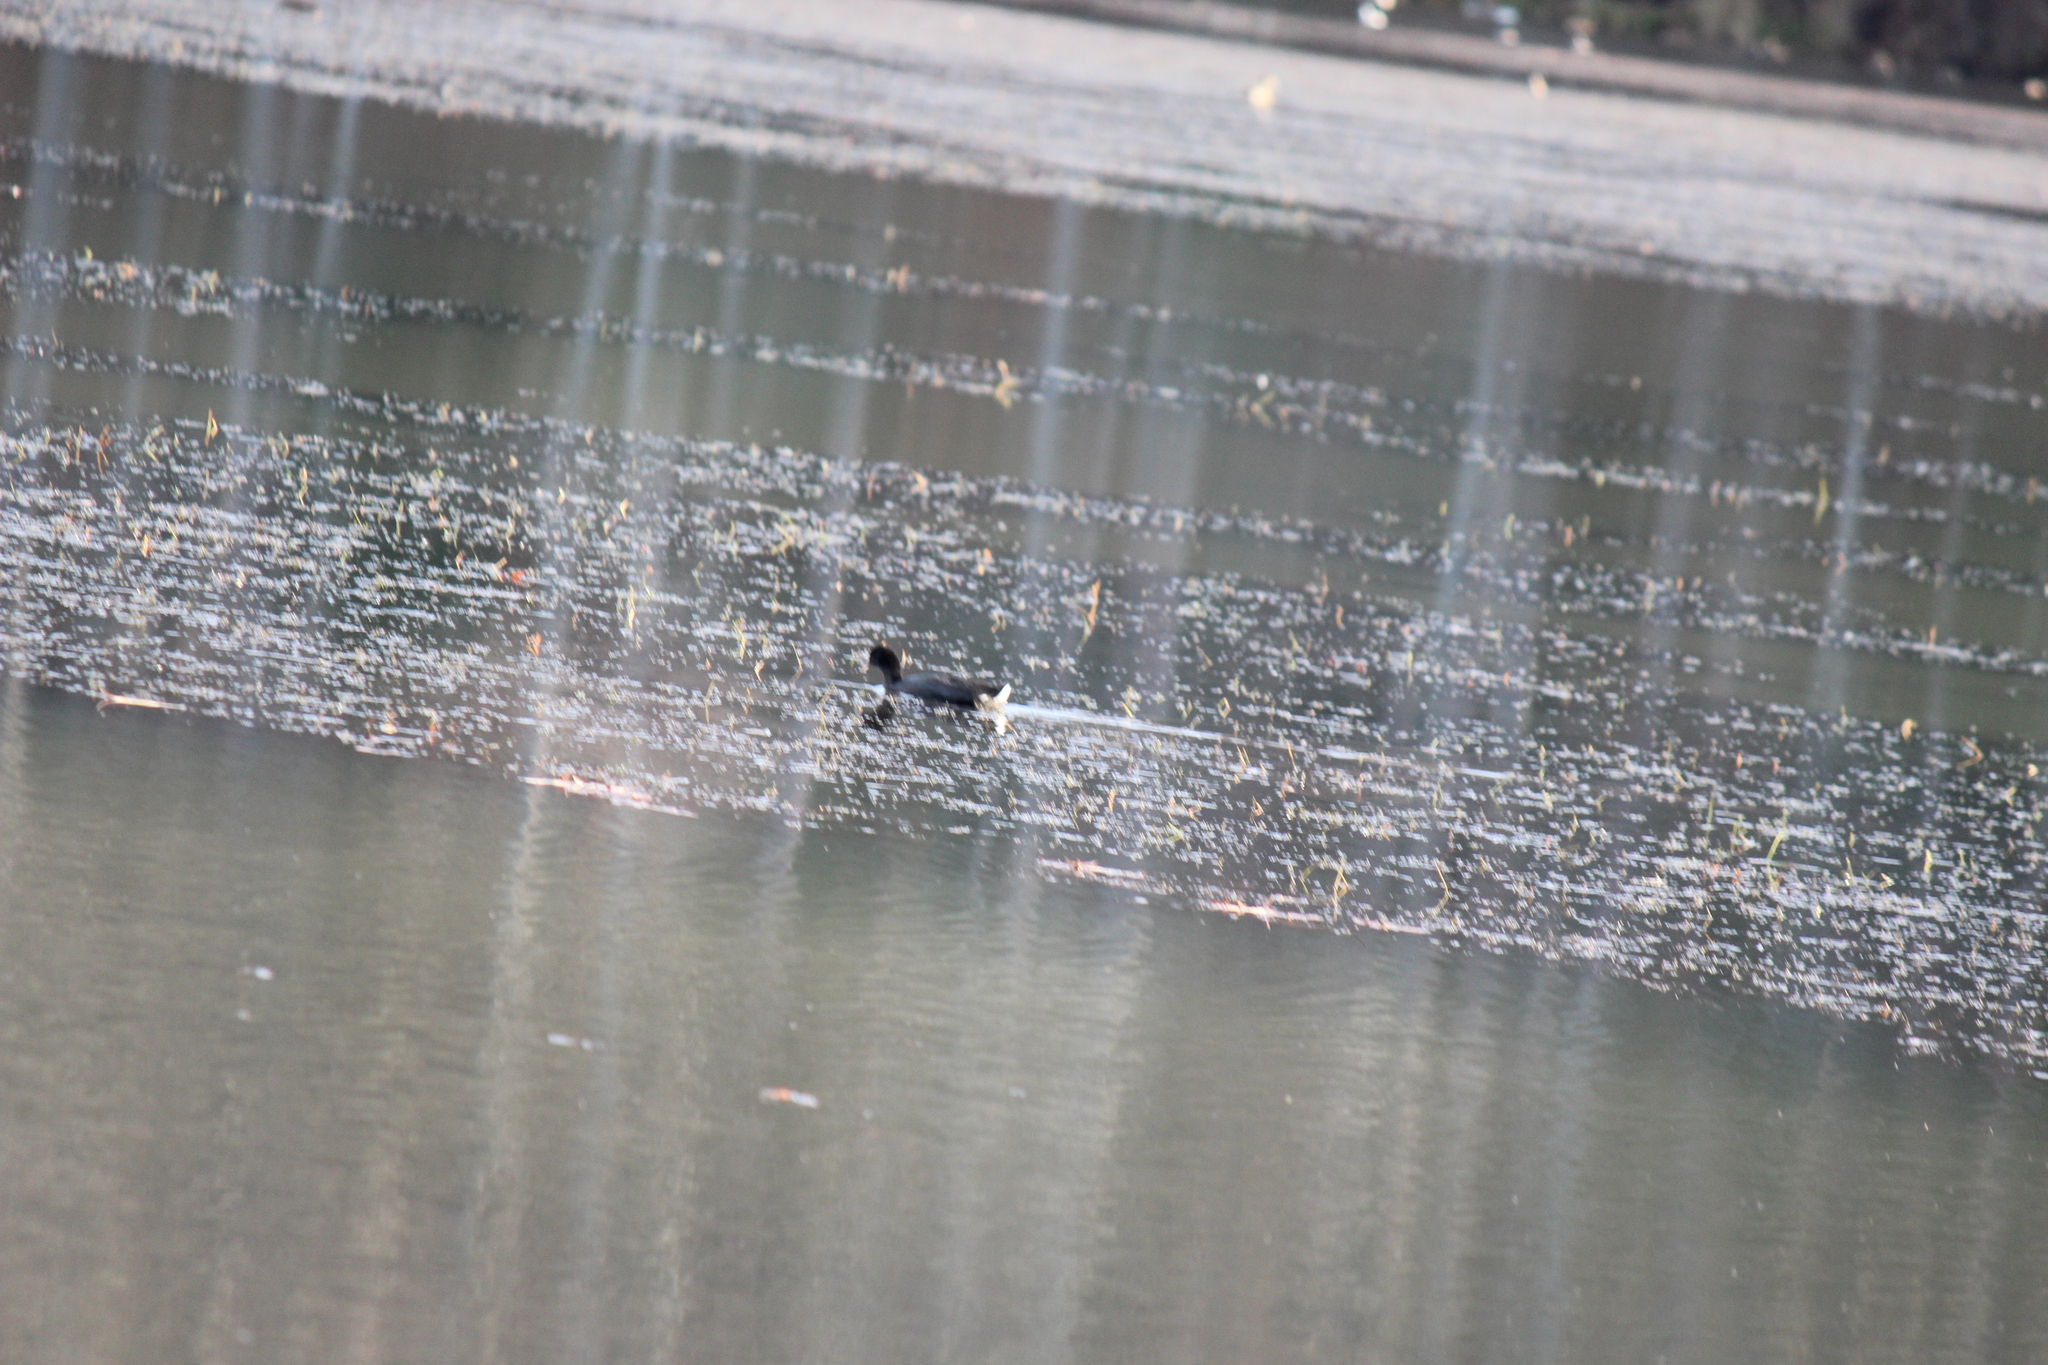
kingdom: Animalia
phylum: Chordata
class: Aves
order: Gruiformes
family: Rallidae
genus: Fulica
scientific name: Fulica americana
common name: American coot
